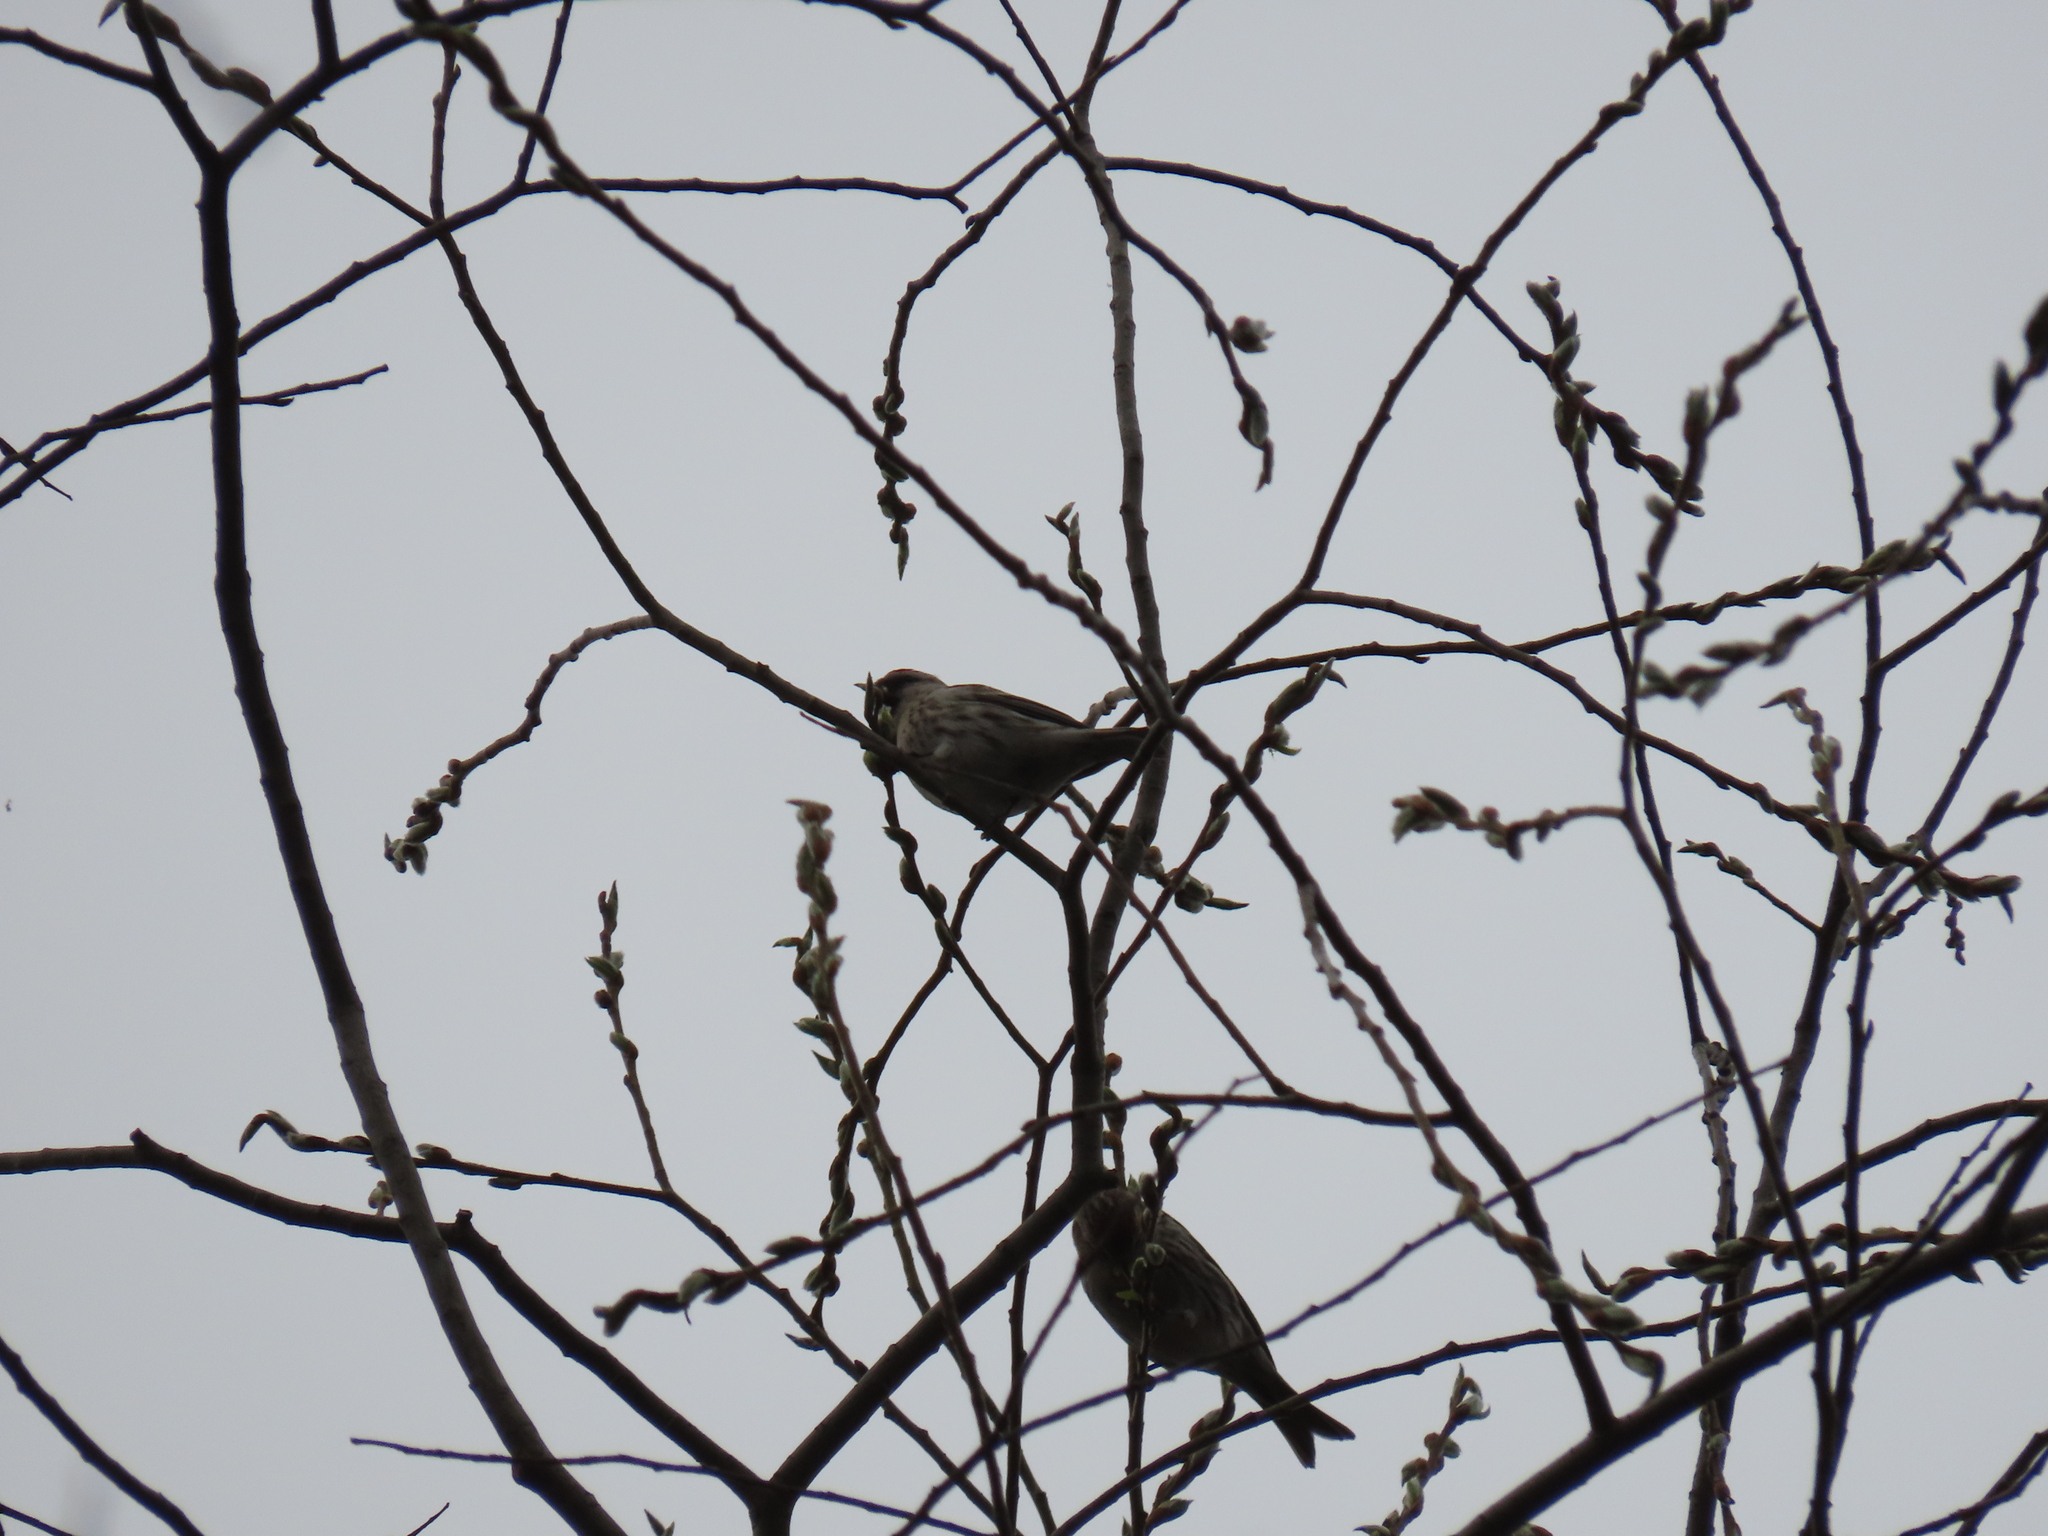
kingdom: Animalia
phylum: Chordata
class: Aves
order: Passeriformes
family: Fringillidae
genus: Acanthis
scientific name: Acanthis flammea
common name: Common redpoll
